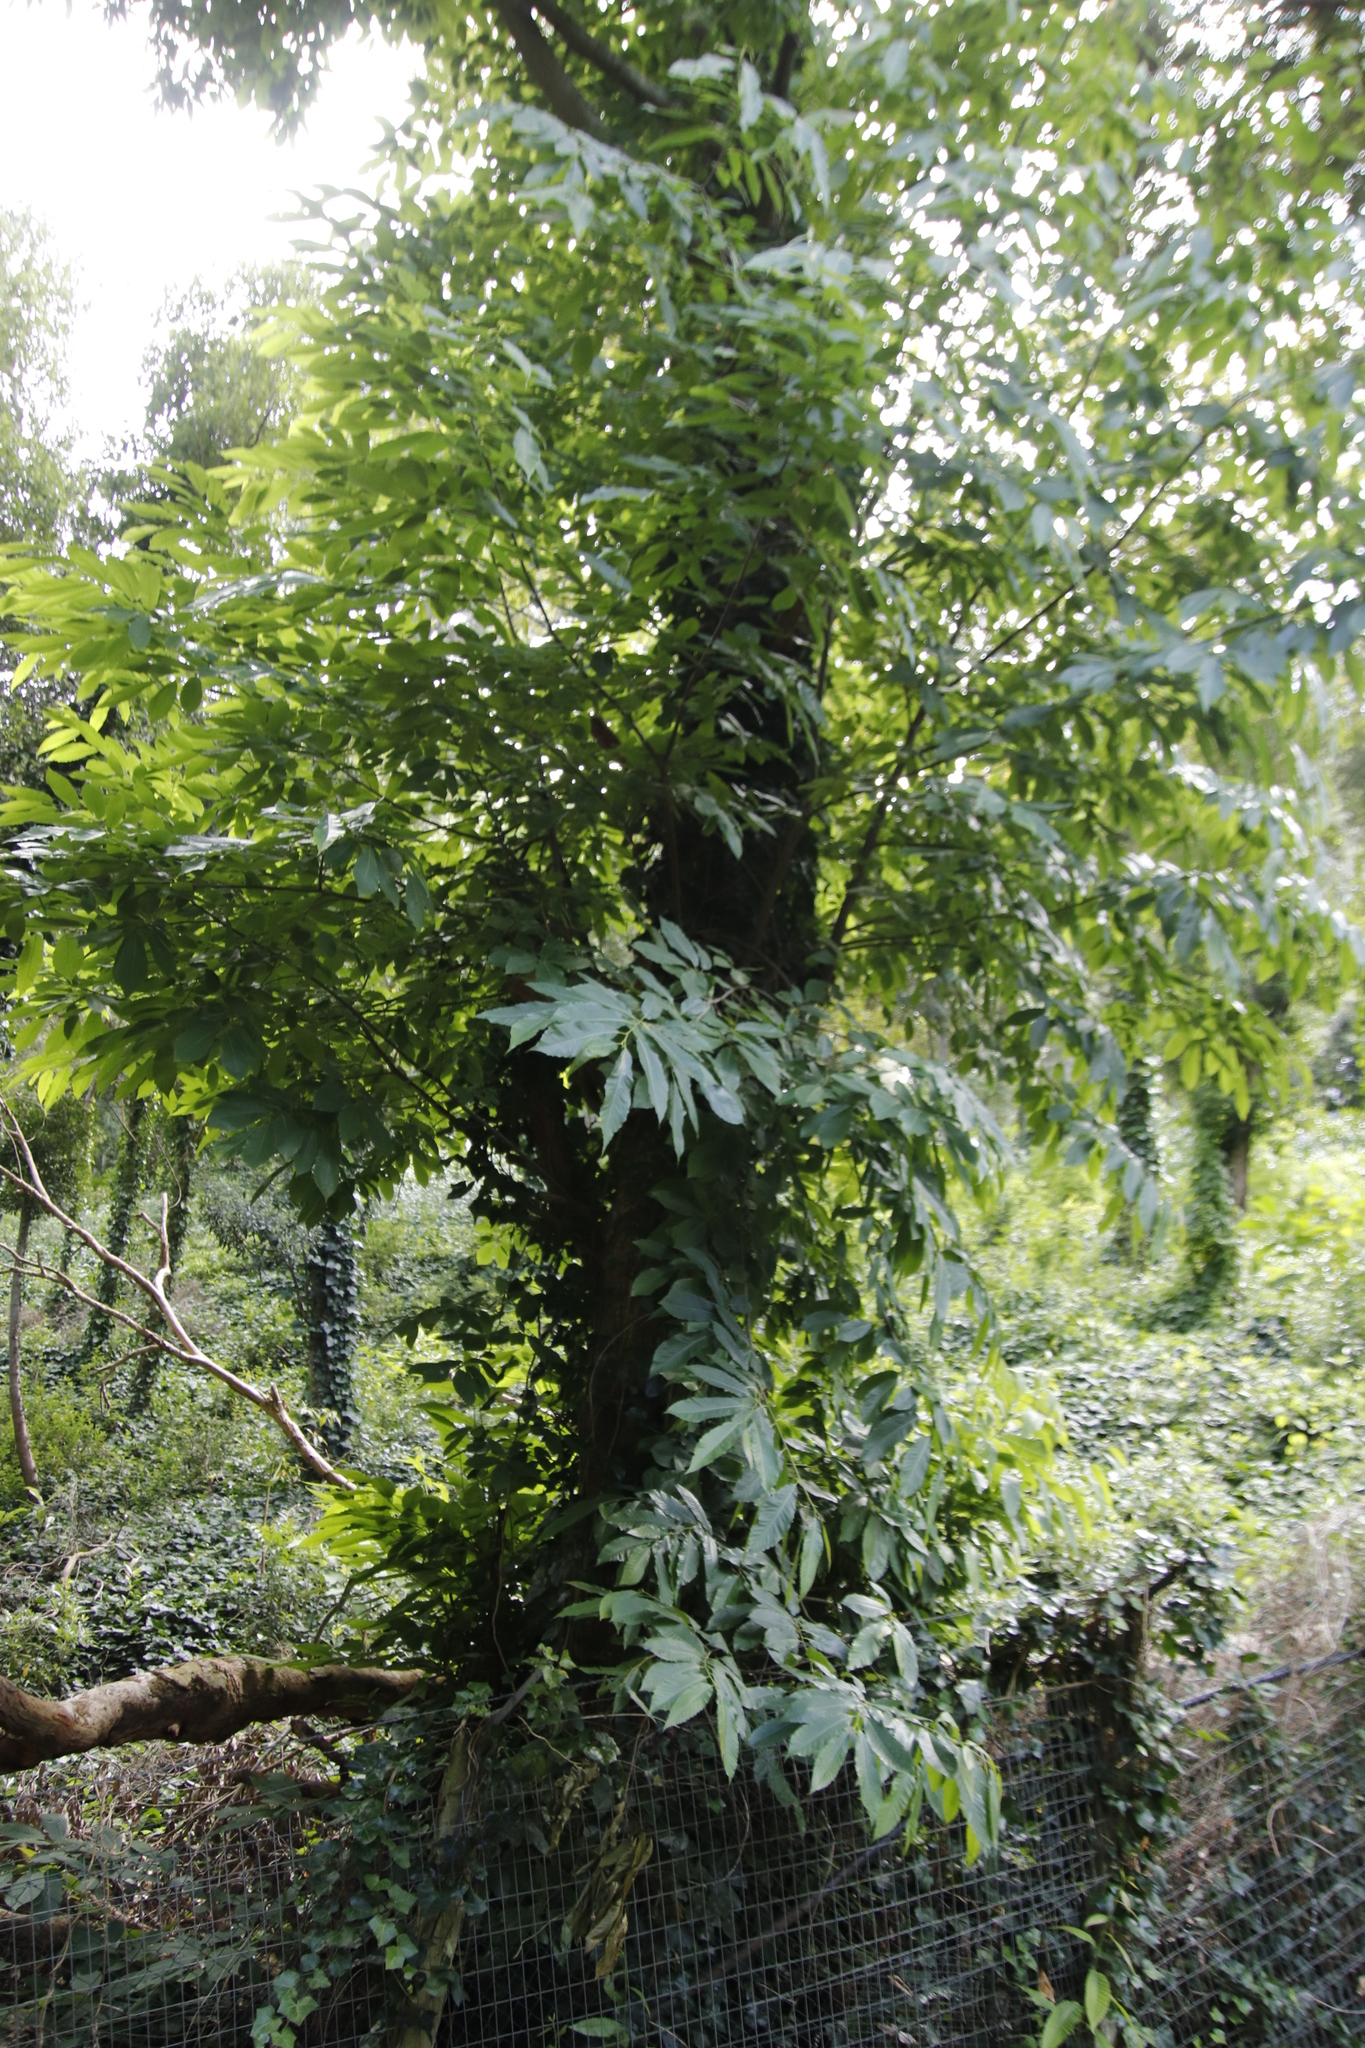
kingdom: Plantae
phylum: Tracheophyta
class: Magnoliopsida
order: Fagales
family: Fagaceae
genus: Castanea
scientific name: Castanea sativa
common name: Sweet chestnut
